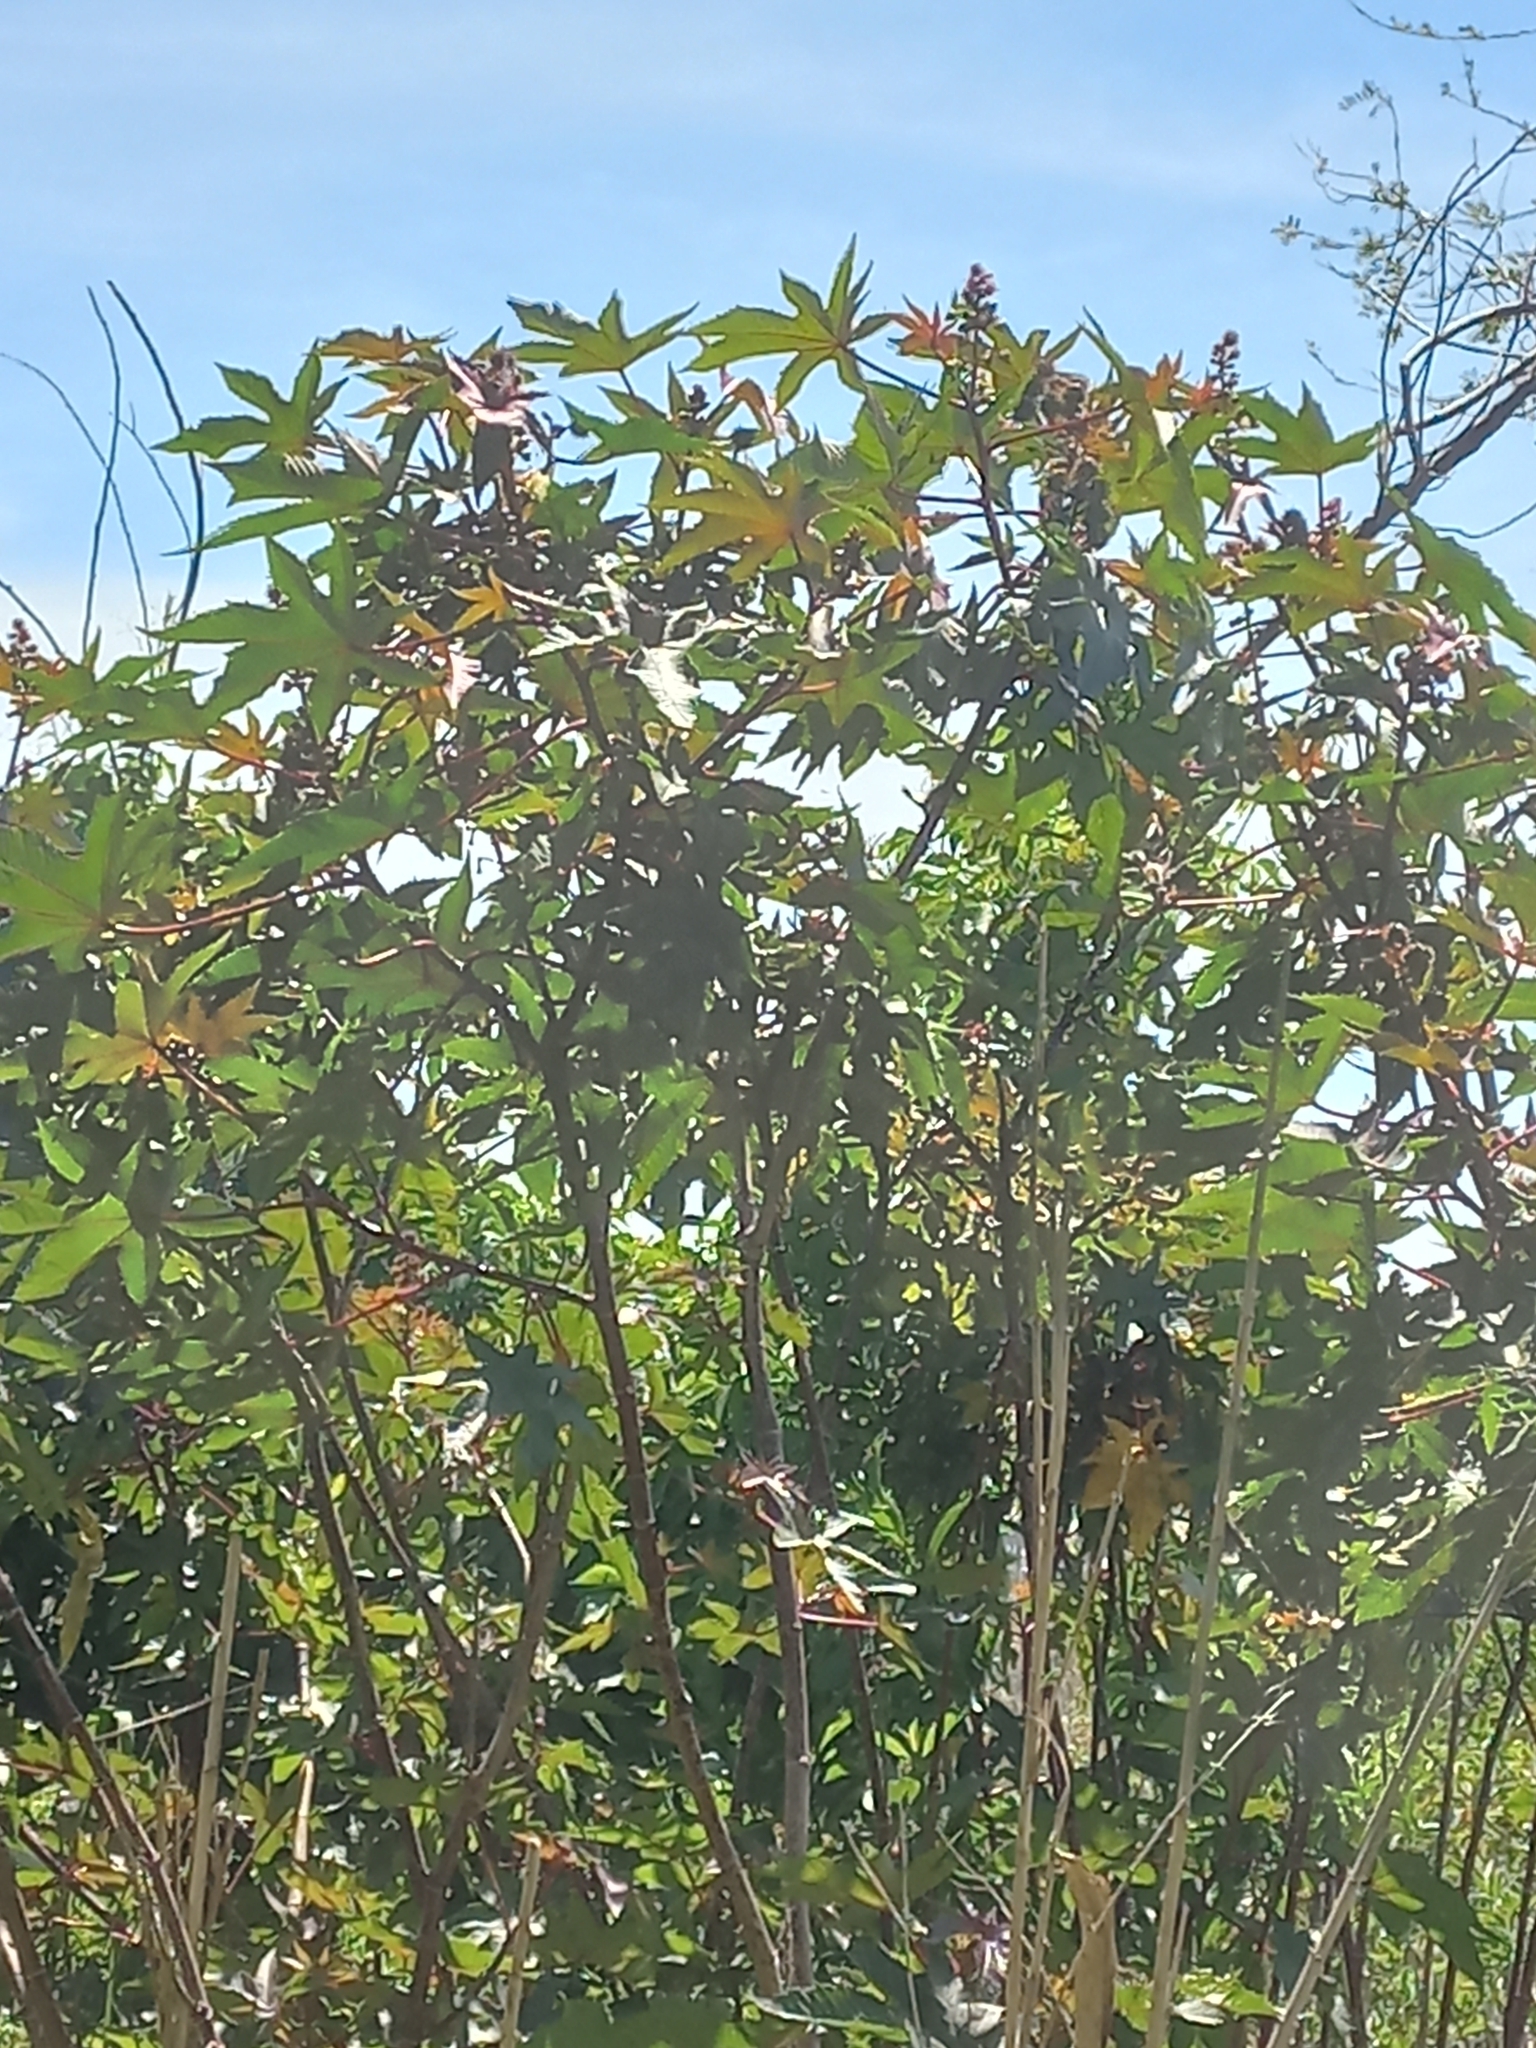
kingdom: Plantae
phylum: Tracheophyta
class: Magnoliopsida
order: Malpighiales
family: Euphorbiaceae
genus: Ricinus
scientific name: Ricinus communis
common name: Castor-oil-plant
